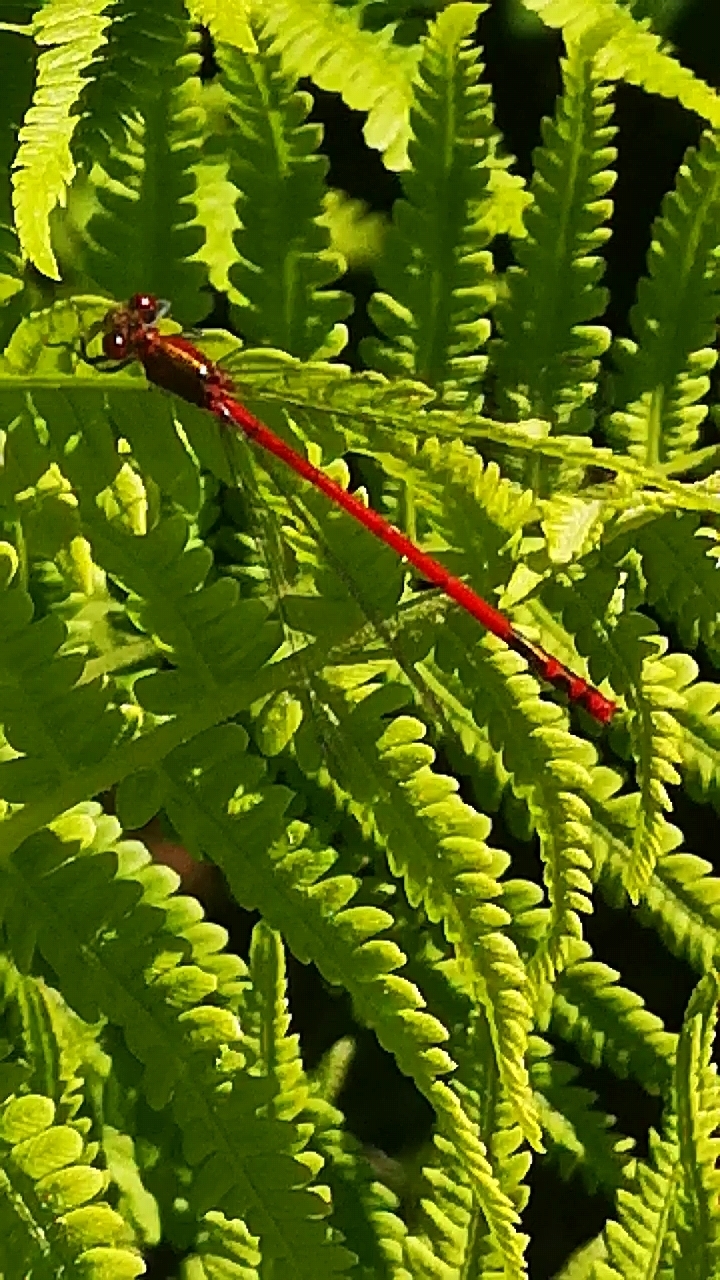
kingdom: Animalia
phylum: Arthropoda
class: Insecta
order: Odonata
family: Coenagrionidae
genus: Pyrrhosoma
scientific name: Pyrrhosoma nymphula
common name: Large red damsel
